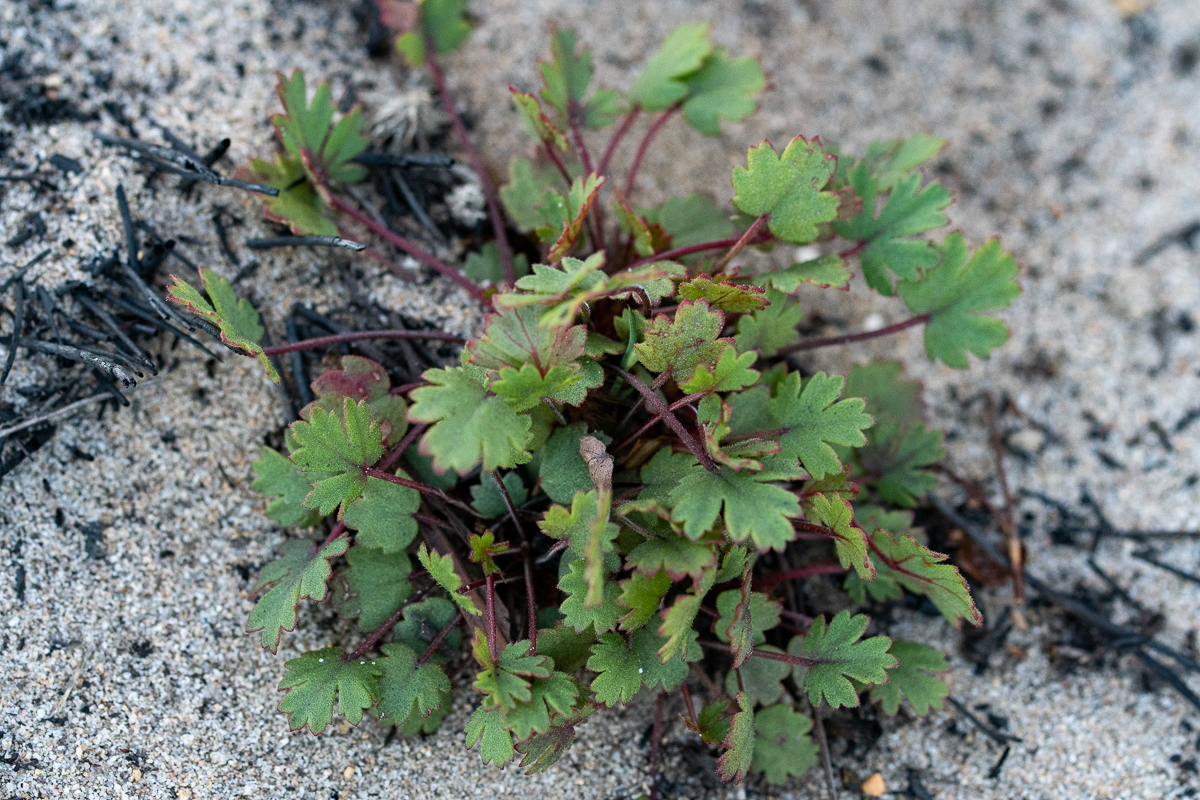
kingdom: Plantae
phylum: Tracheophyta
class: Magnoliopsida
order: Geraniales
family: Geraniaceae
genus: Pelargonium
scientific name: Pelargonium incarnatum
